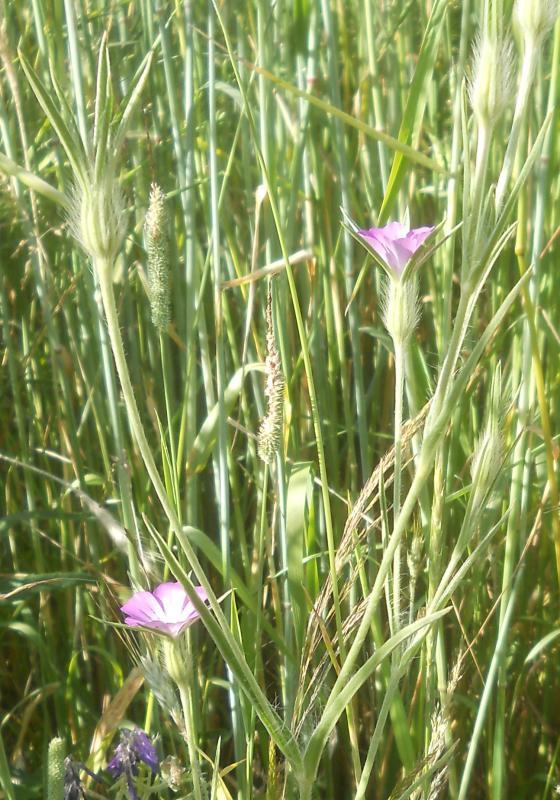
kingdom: Plantae
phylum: Tracheophyta
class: Magnoliopsida
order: Caryophyllales
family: Caryophyllaceae
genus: Agrostemma
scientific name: Agrostemma githago
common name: Common corncockle
